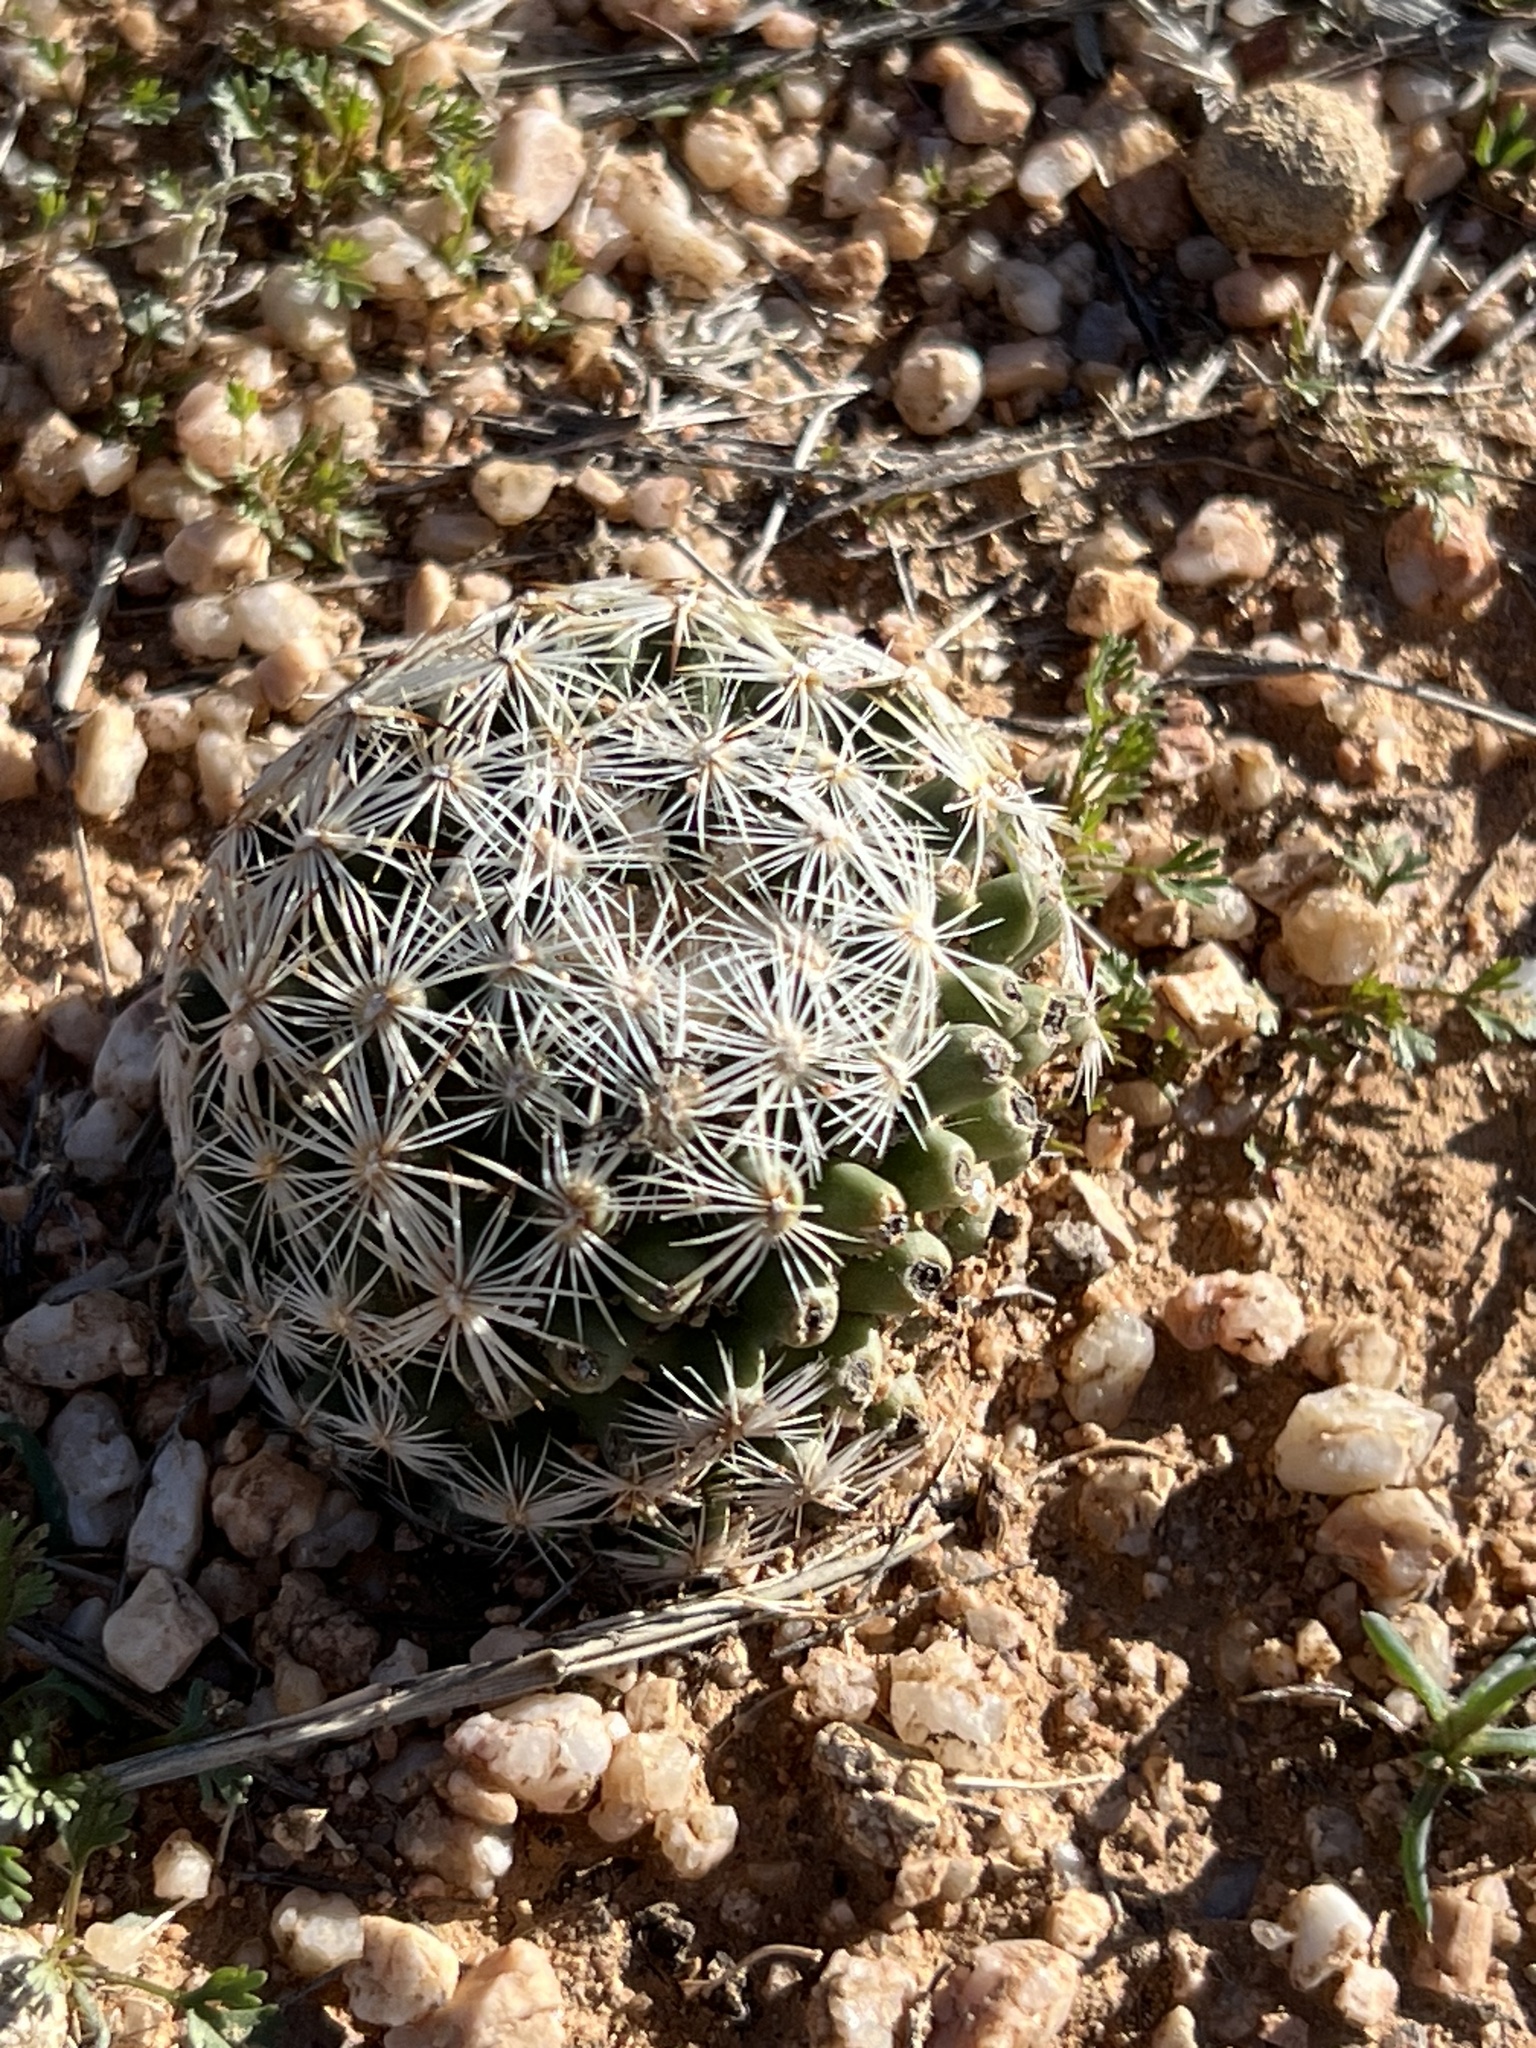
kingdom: Plantae
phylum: Tracheophyta
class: Magnoliopsida
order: Caryophyllales
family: Cactaceae
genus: Pelecyphora
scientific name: Pelecyphora vivipara
